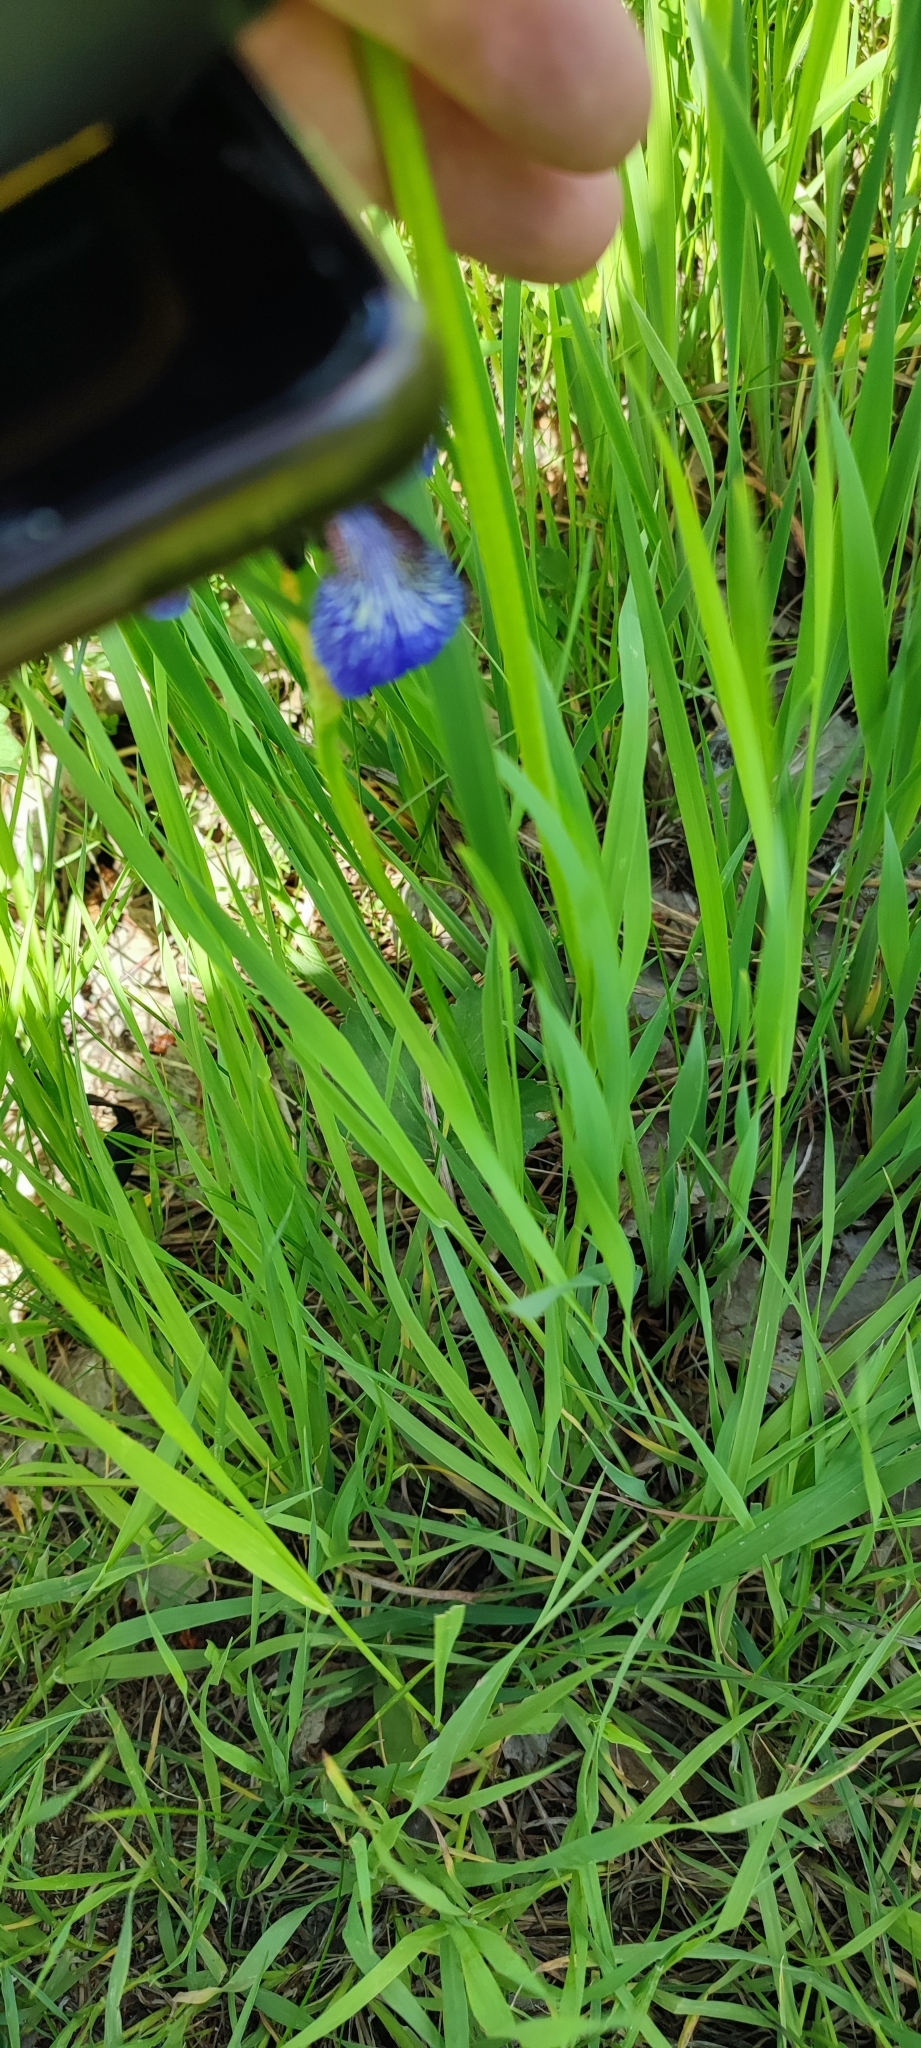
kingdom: Plantae
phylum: Tracheophyta
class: Liliopsida
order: Asparagales
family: Iridaceae
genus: Iris
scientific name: Iris sibirica
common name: Siberian iris
